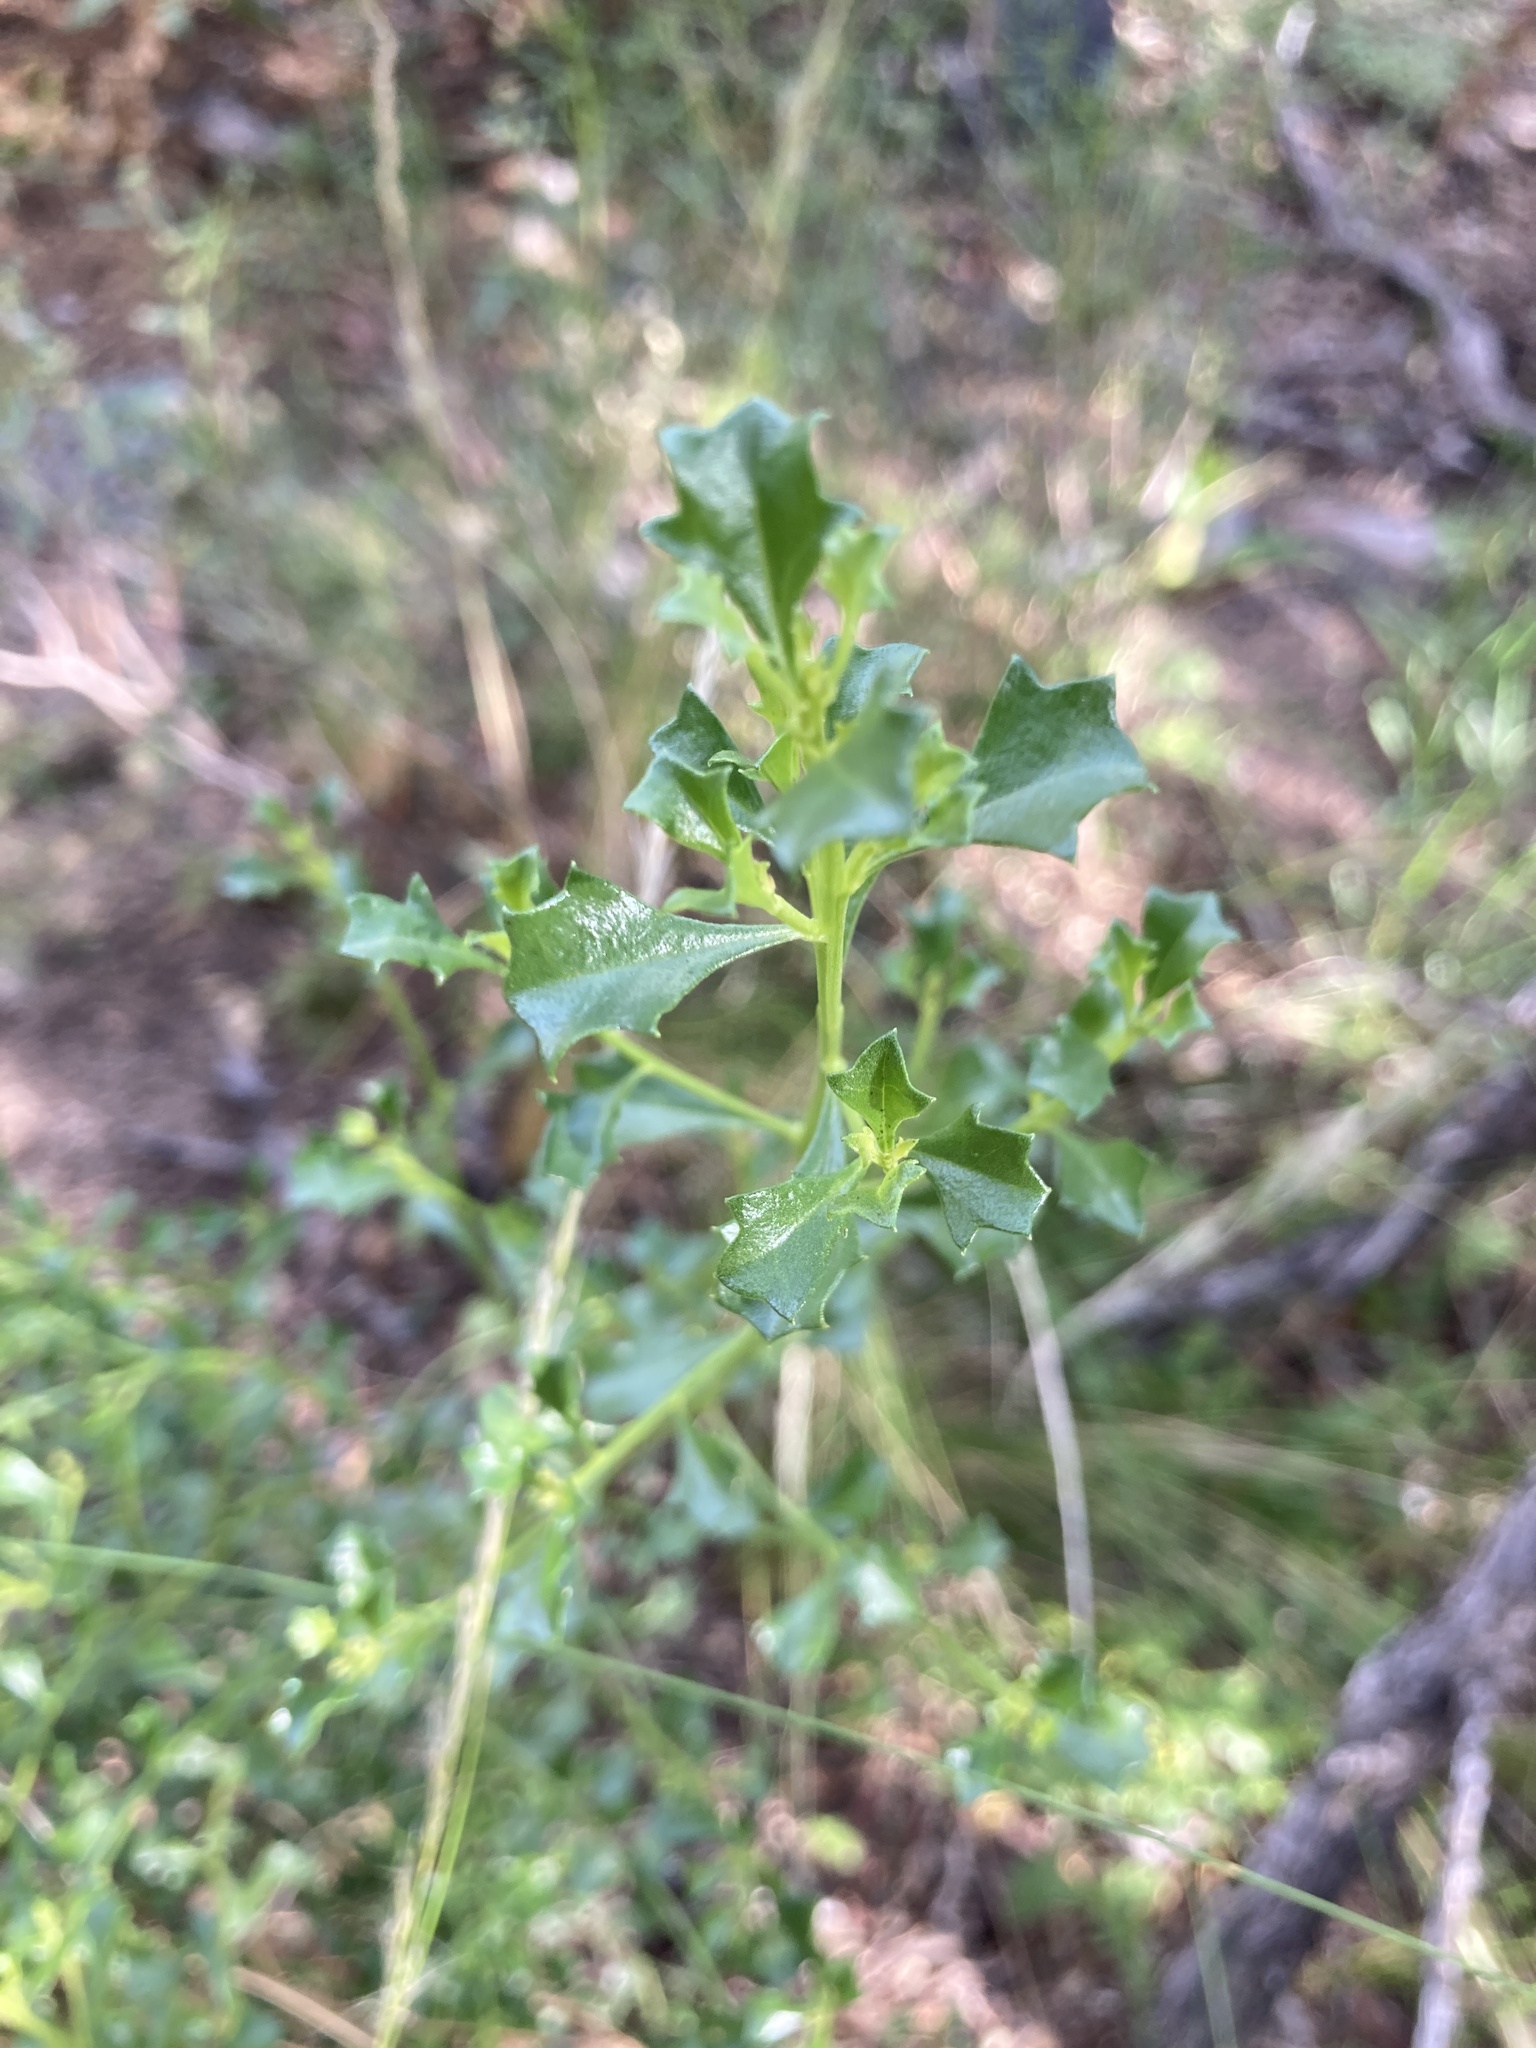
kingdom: Plantae
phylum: Tracheophyta
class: Magnoliopsida
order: Asterales
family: Asteraceae
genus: Baccharis
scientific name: Baccharis flabellata
